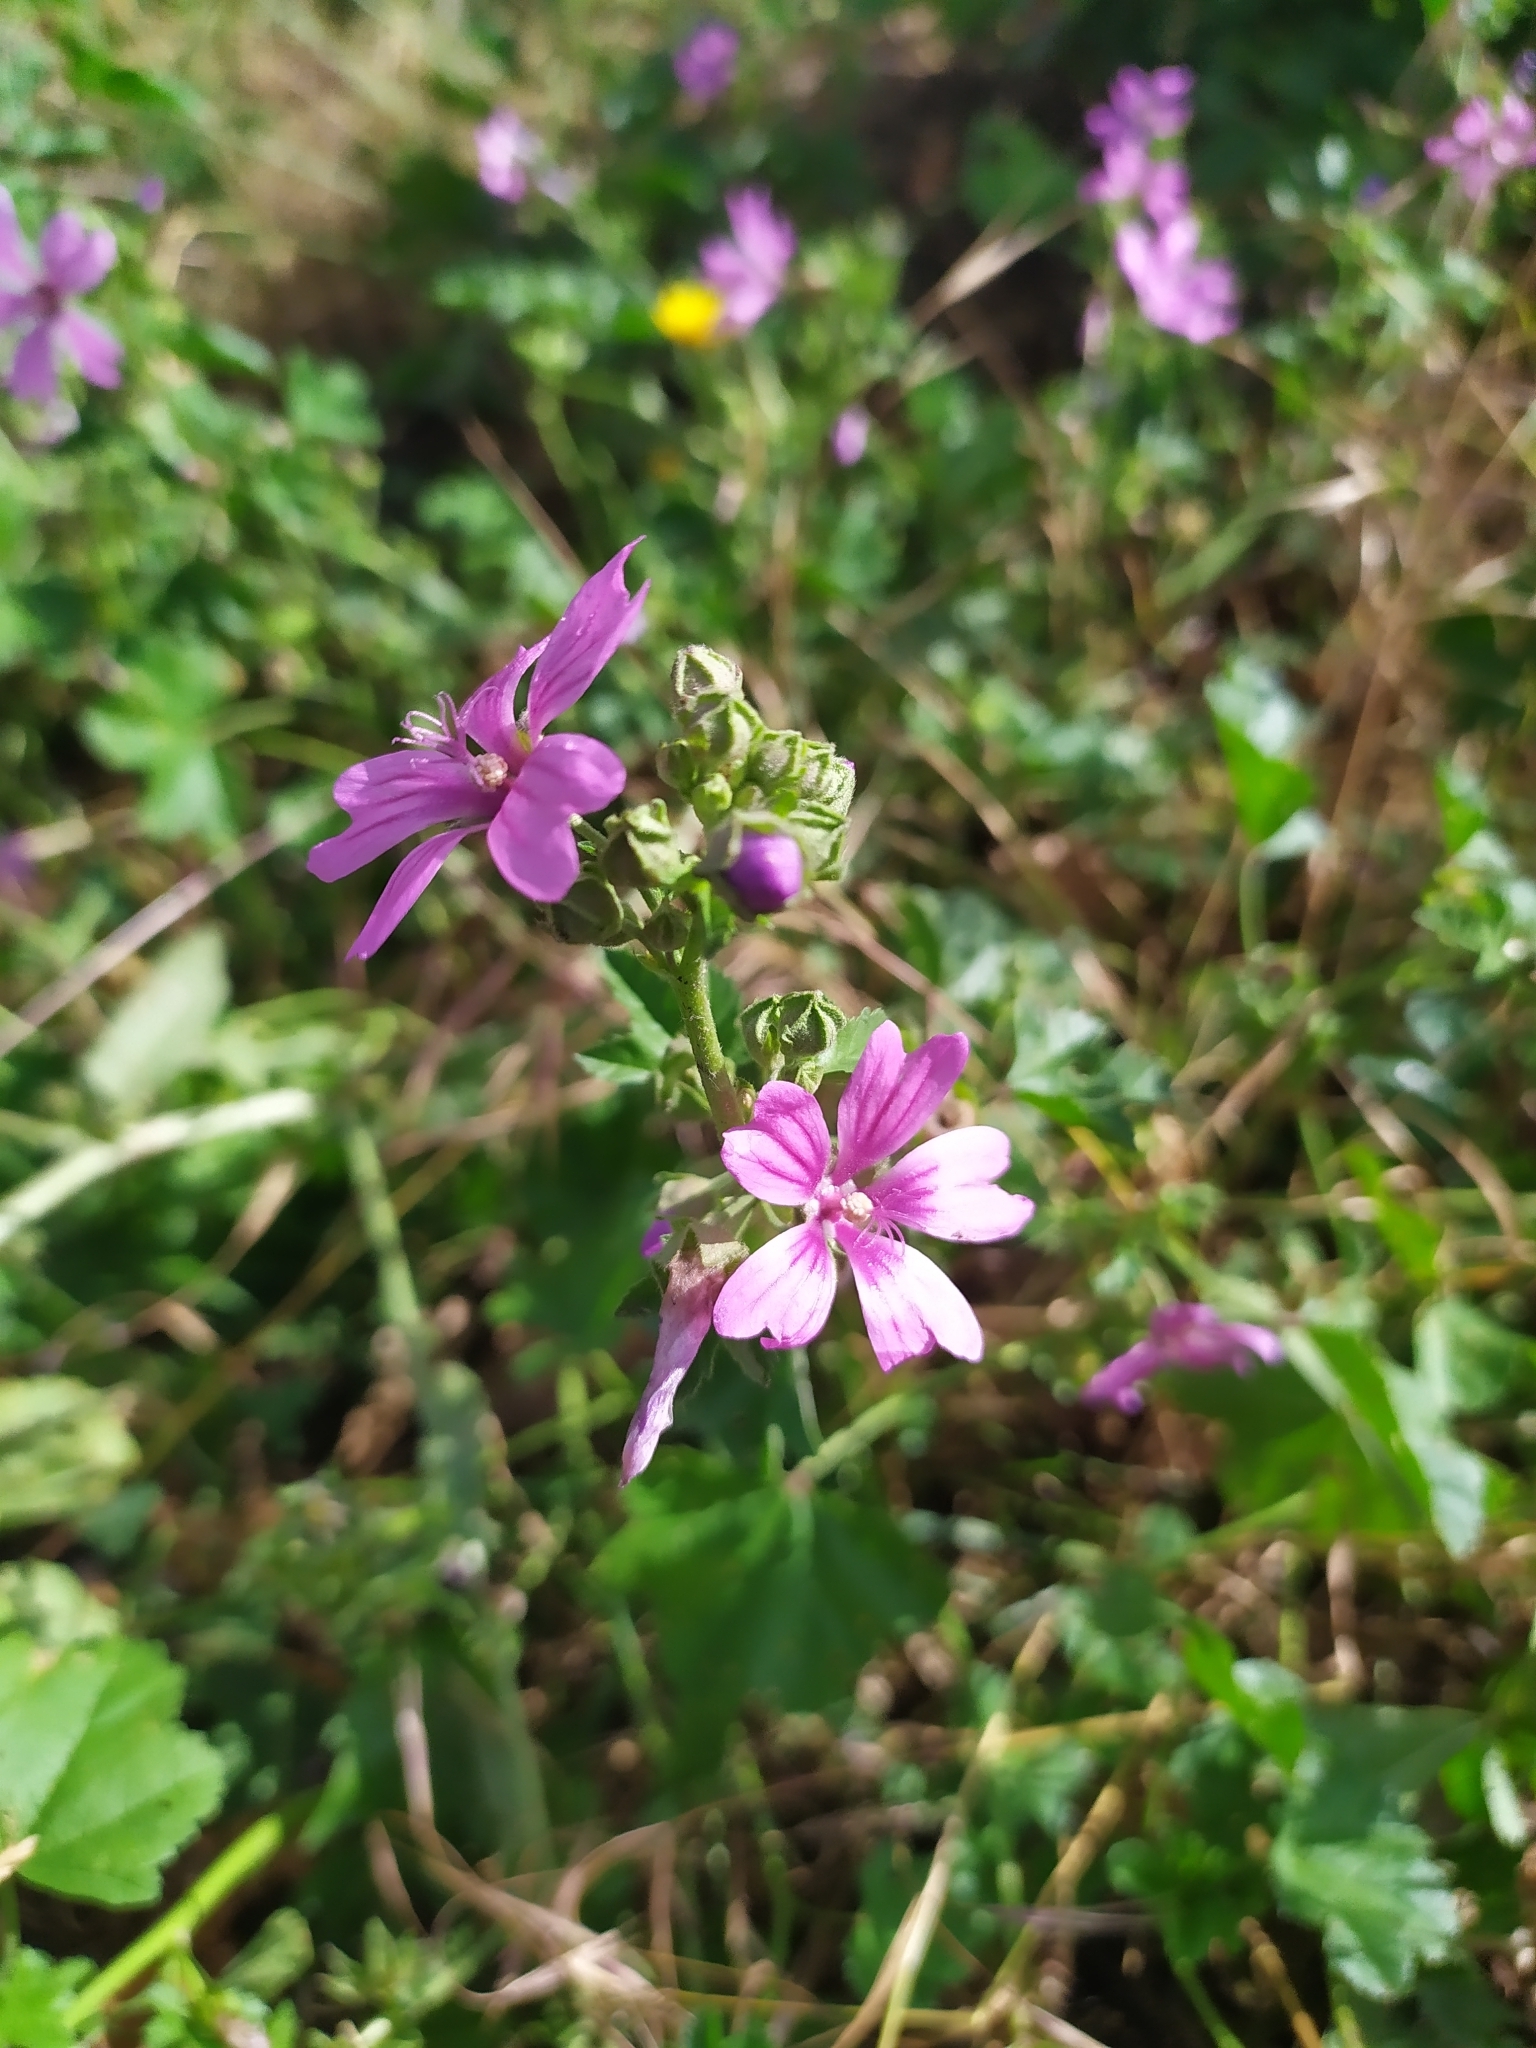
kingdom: Plantae
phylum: Tracheophyta
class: Magnoliopsida
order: Malvales
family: Malvaceae
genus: Malva
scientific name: Malva sylvestris
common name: Common mallow
